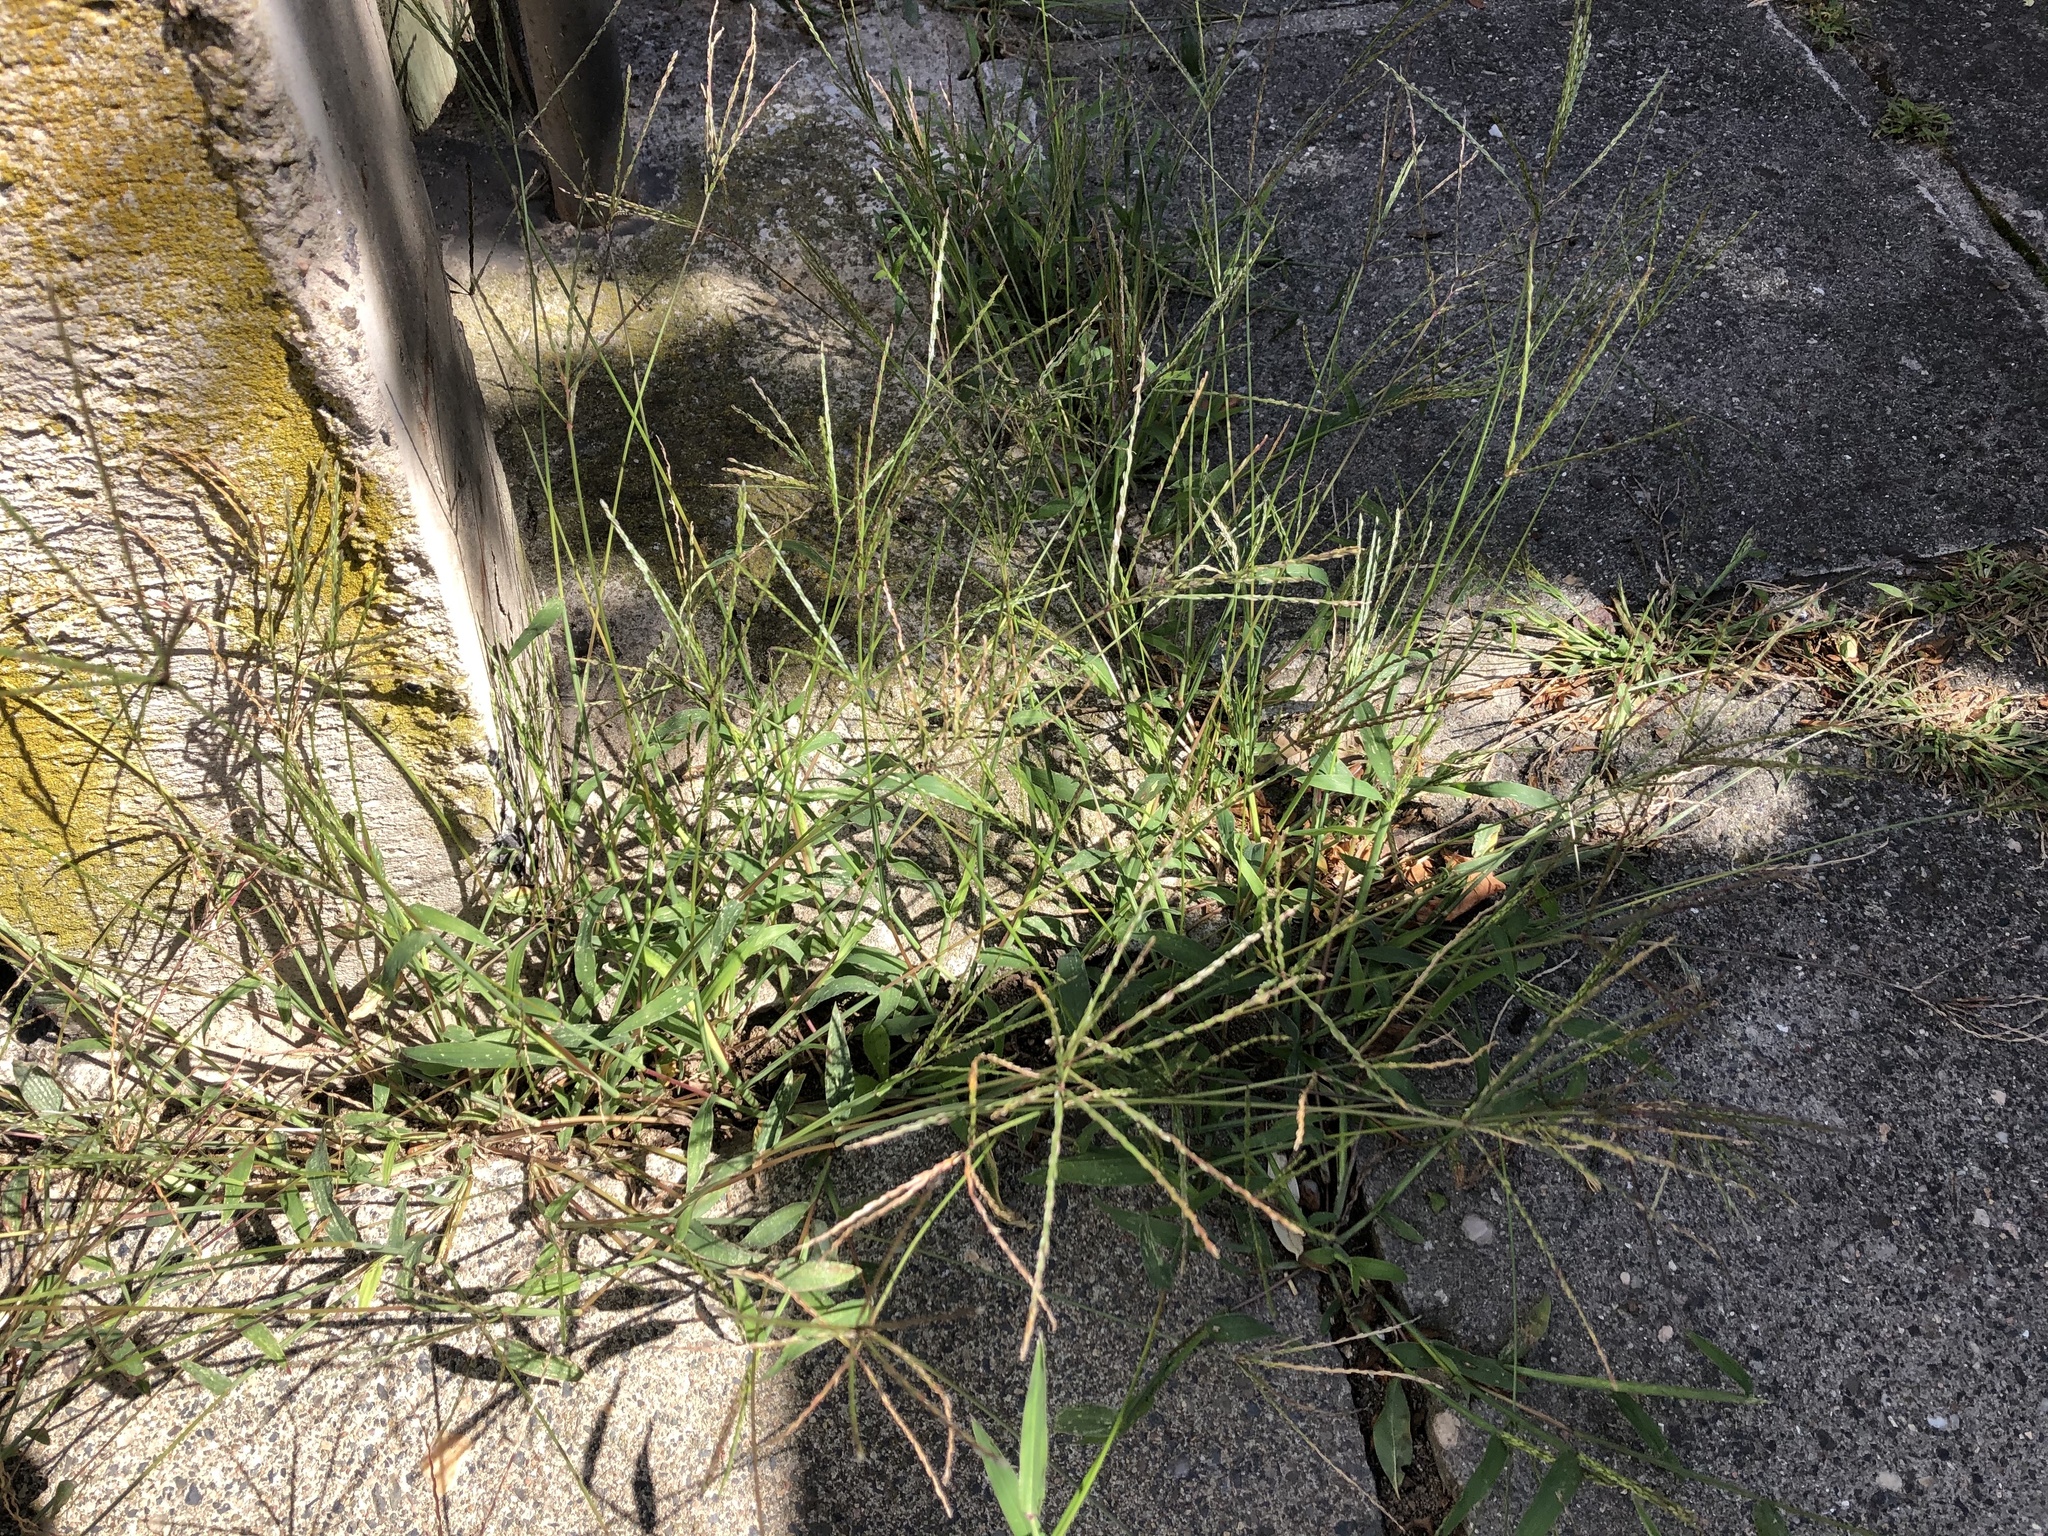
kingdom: Plantae
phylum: Tracheophyta
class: Liliopsida
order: Poales
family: Poaceae
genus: Digitaria
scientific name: Digitaria sanguinalis
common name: Hairy crabgrass
